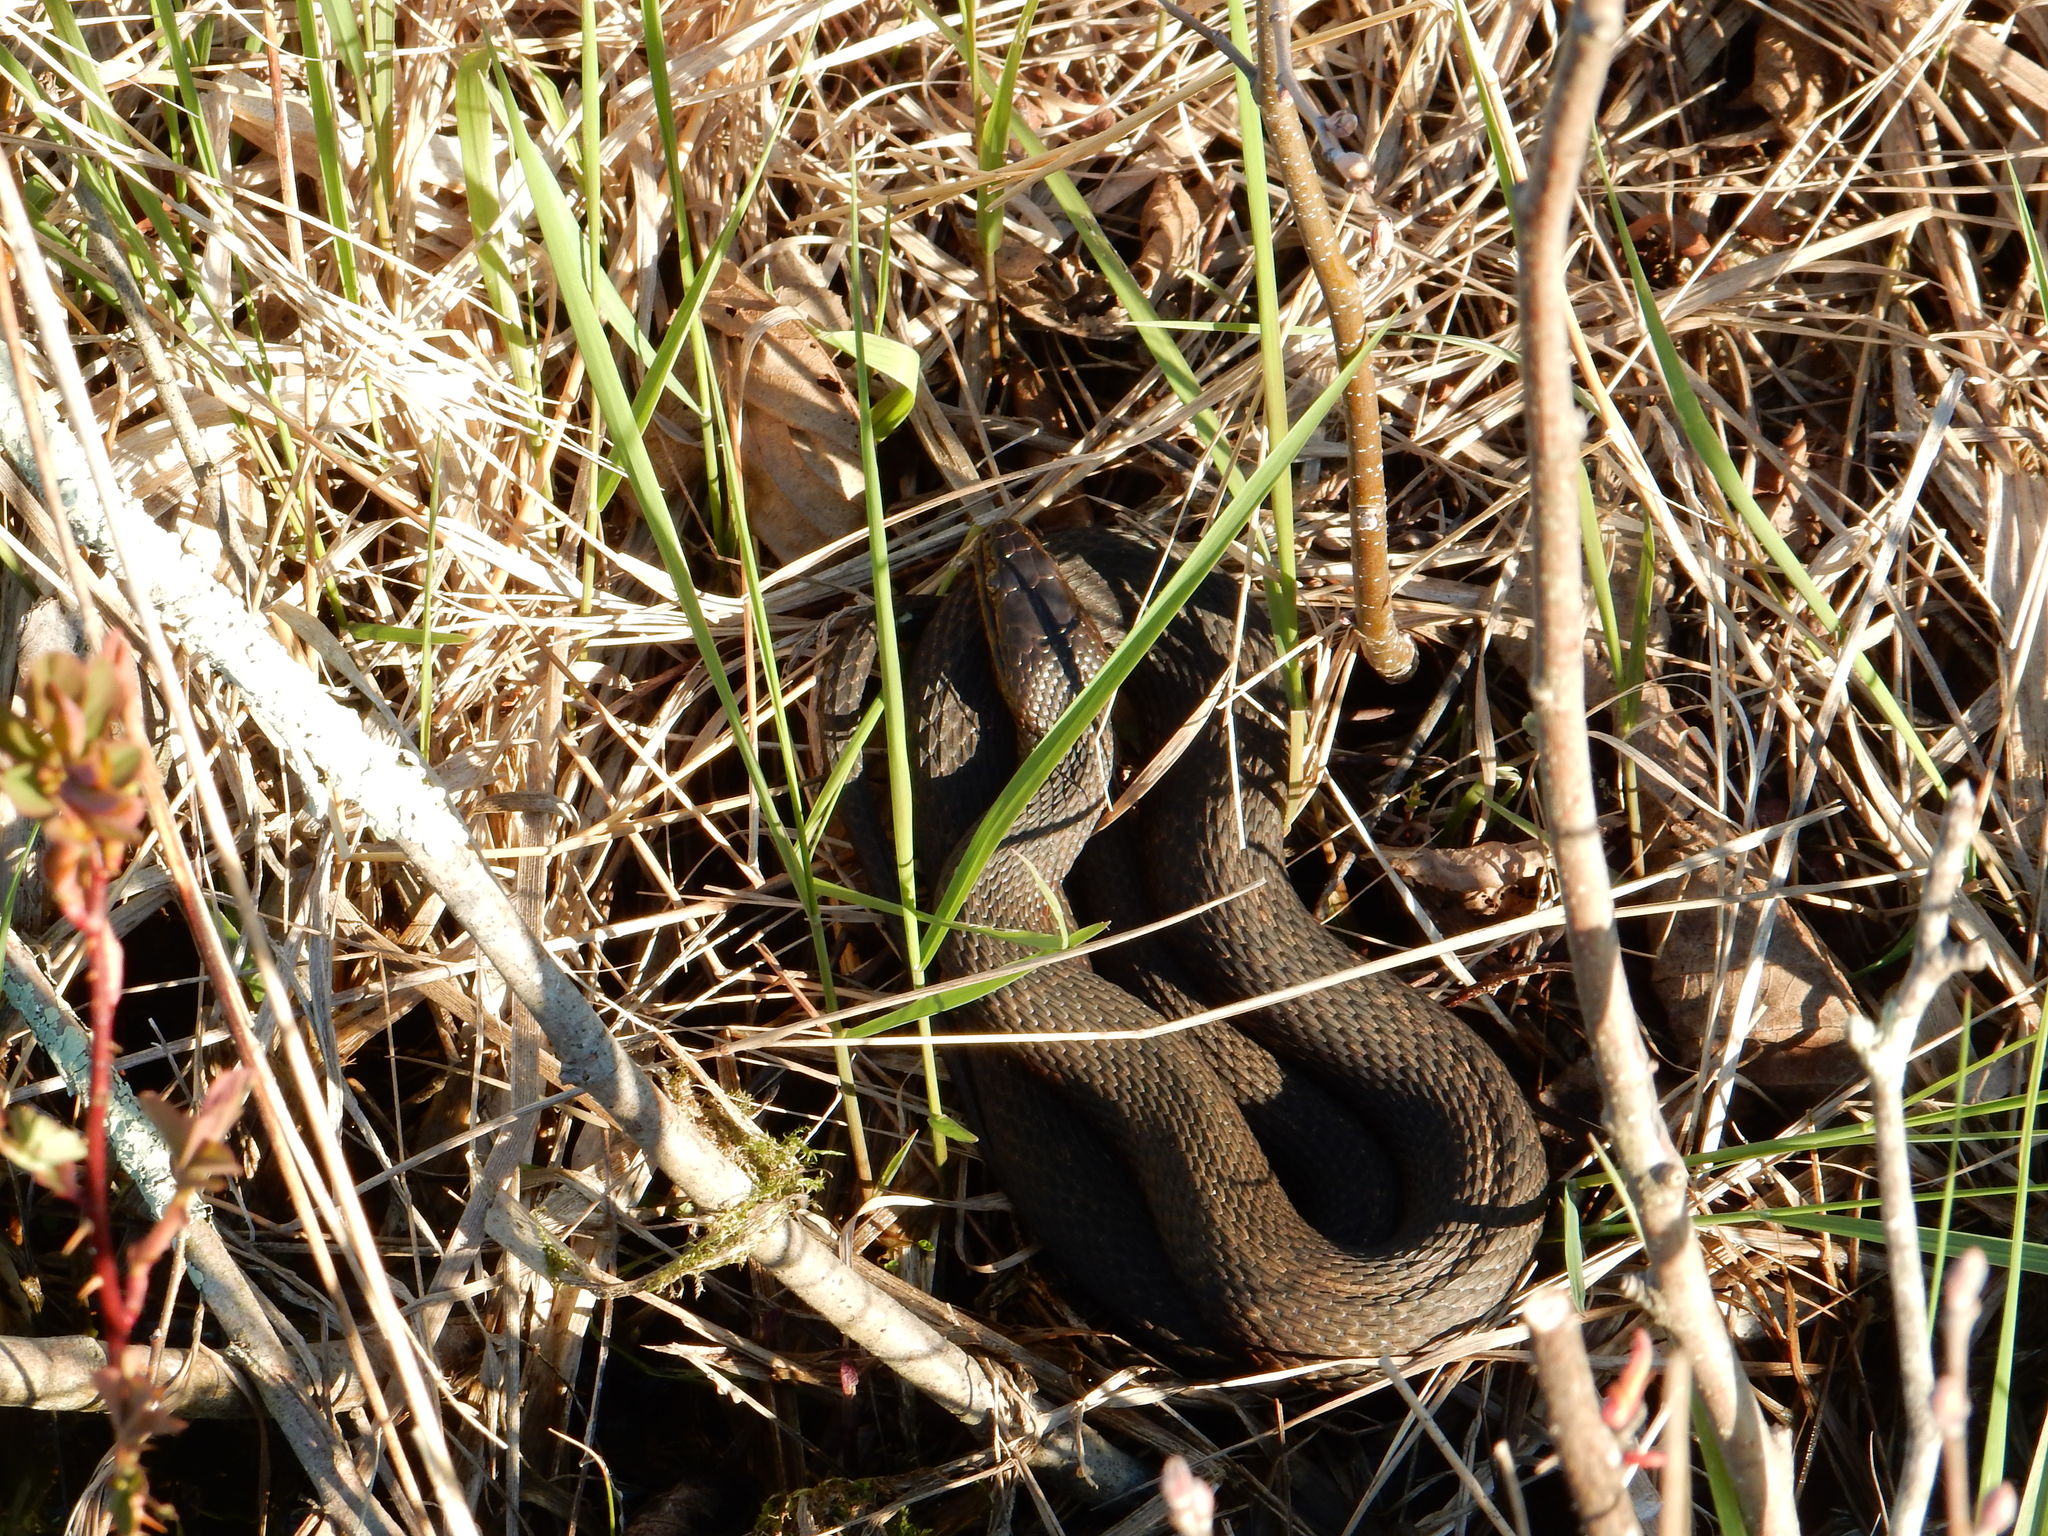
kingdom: Animalia
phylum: Chordata
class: Squamata
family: Colubridae
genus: Nerodia
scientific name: Nerodia sipedon
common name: Northern water snake
